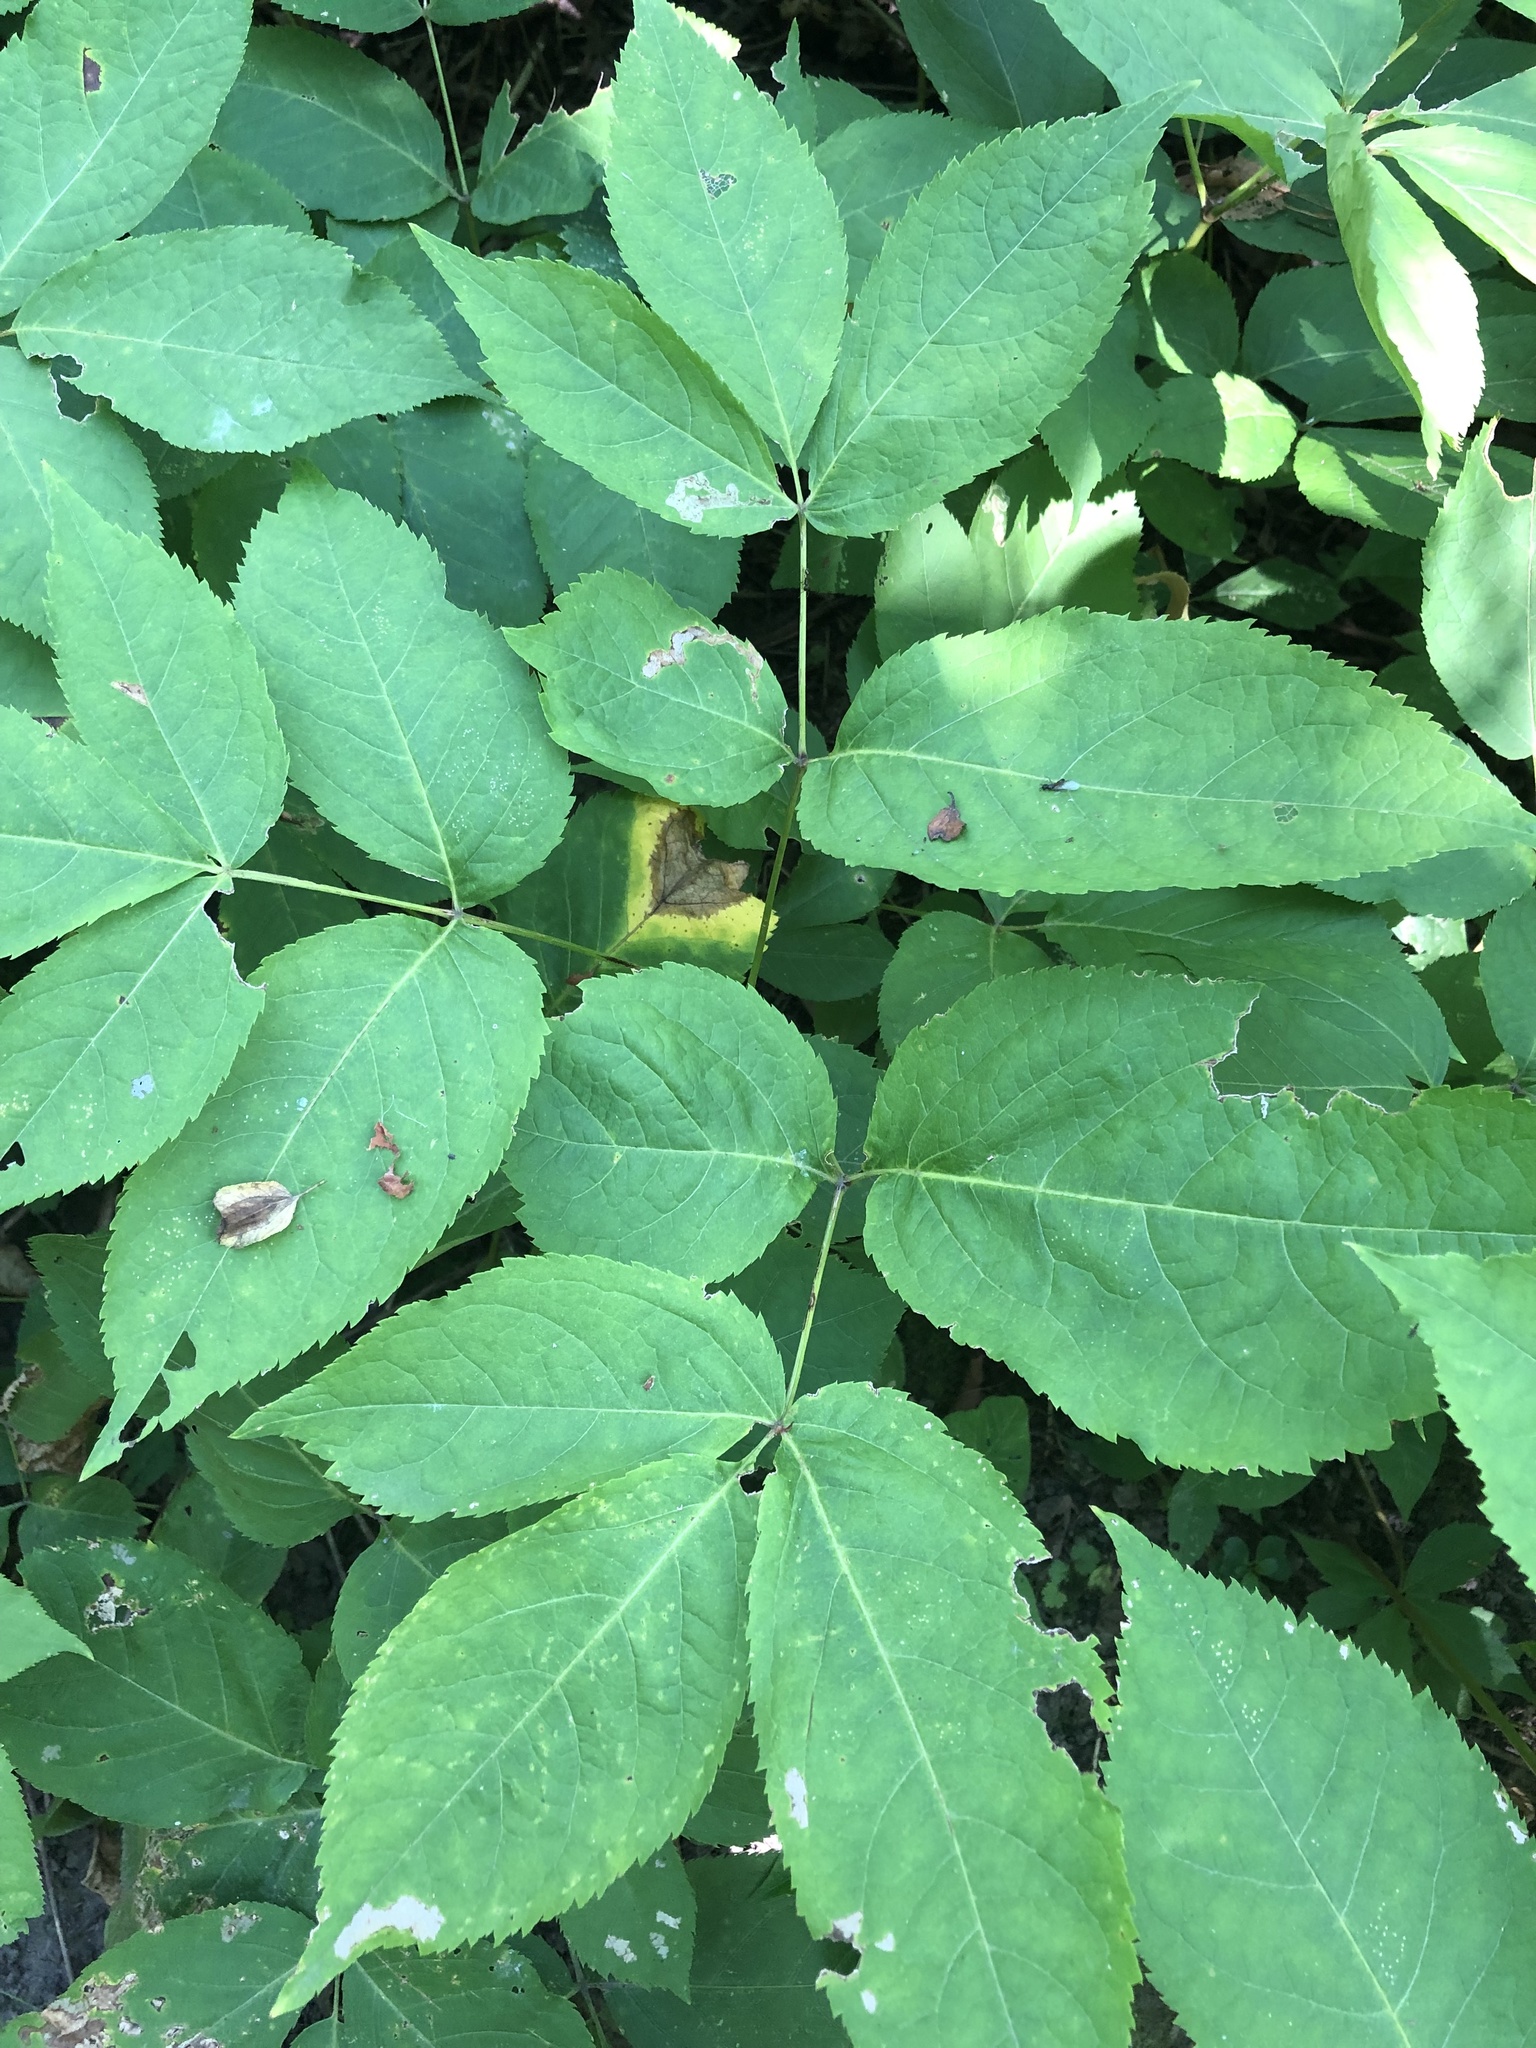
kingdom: Plantae
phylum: Tracheophyta
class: Magnoliopsida
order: Apiales
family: Araliaceae
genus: Aralia
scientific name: Aralia nudicaulis
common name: Wild sarsaparilla
